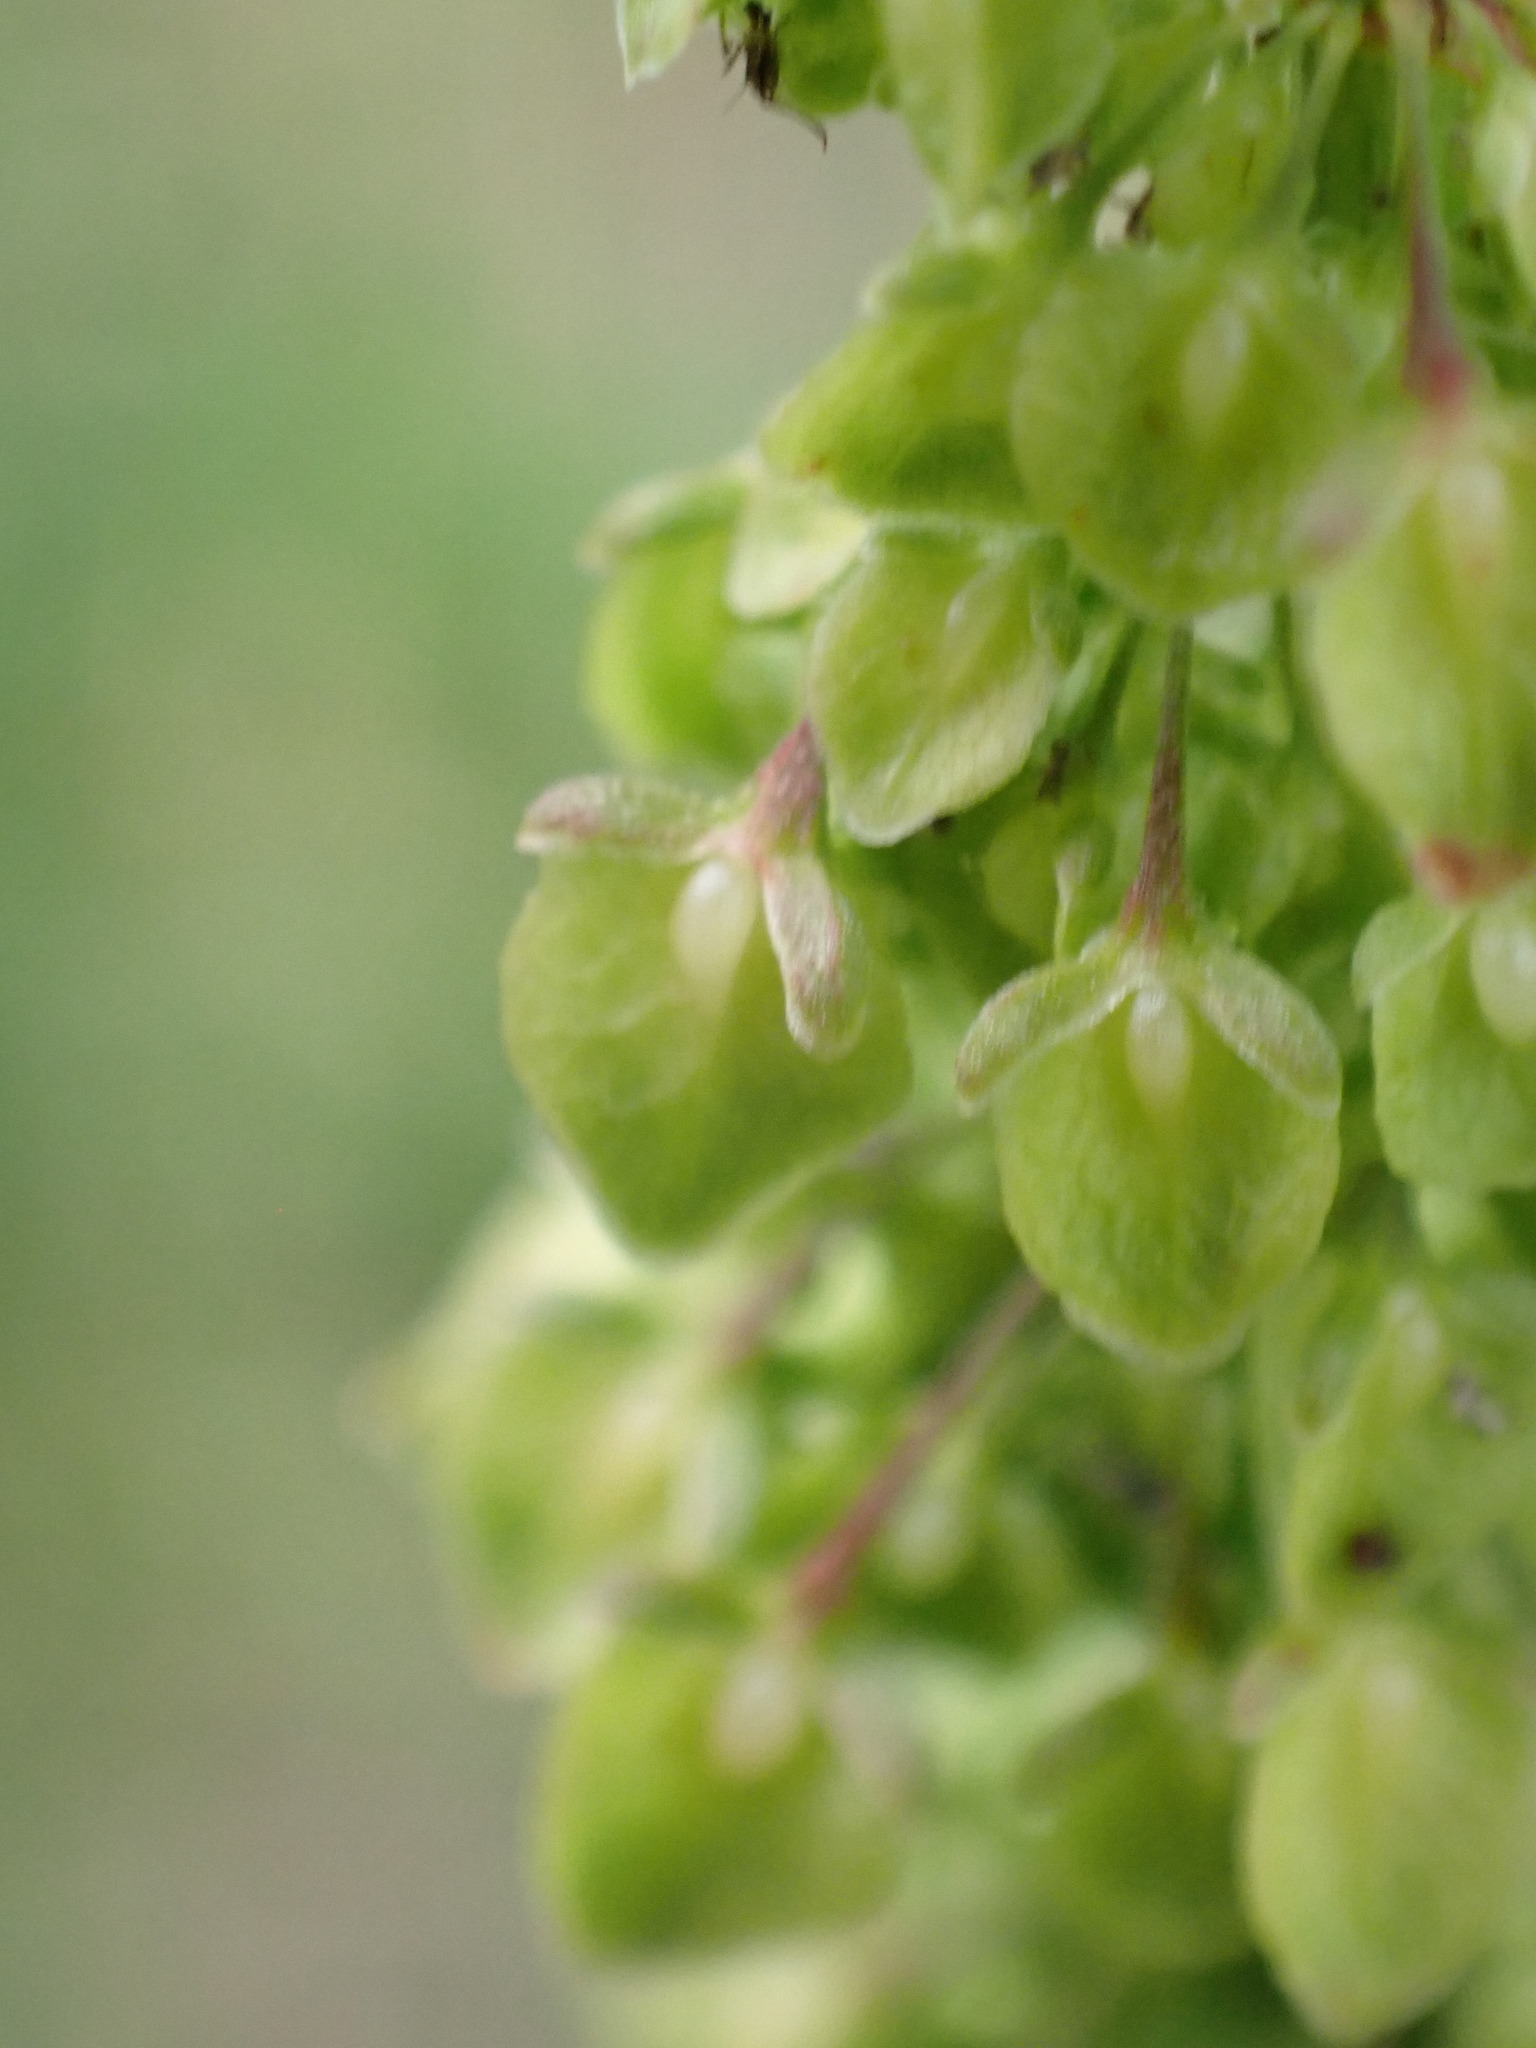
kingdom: Plantae
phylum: Tracheophyta
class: Magnoliopsida
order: Caryophyllales
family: Polygonaceae
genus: Rumex
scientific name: Rumex crispus
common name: Curled dock
